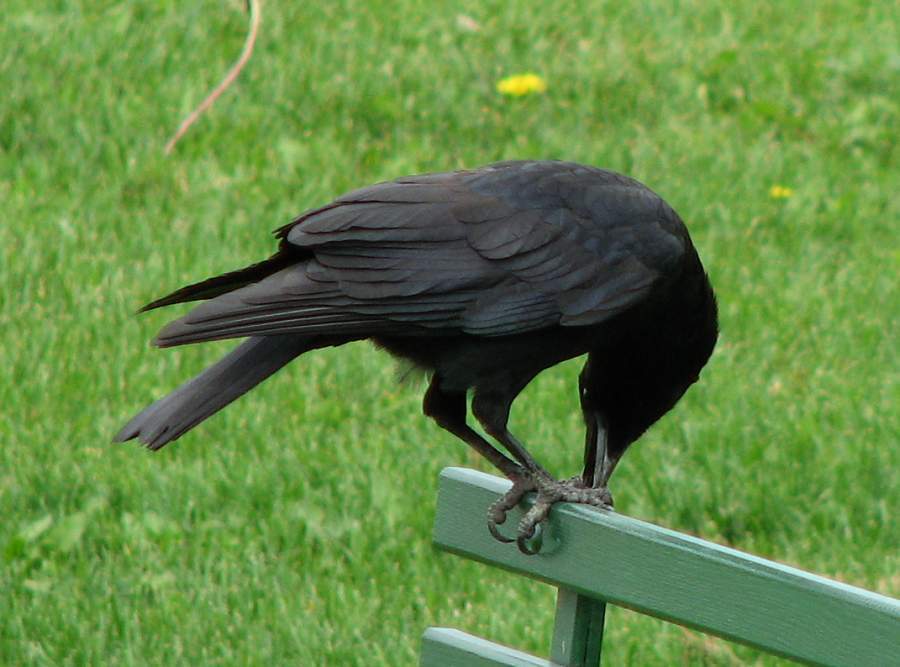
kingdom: Animalia
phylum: Chordata
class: Aves
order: Passeriformes
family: Corvidae
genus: Corvus
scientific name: Corvus brachyrhynchos
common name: American crow
